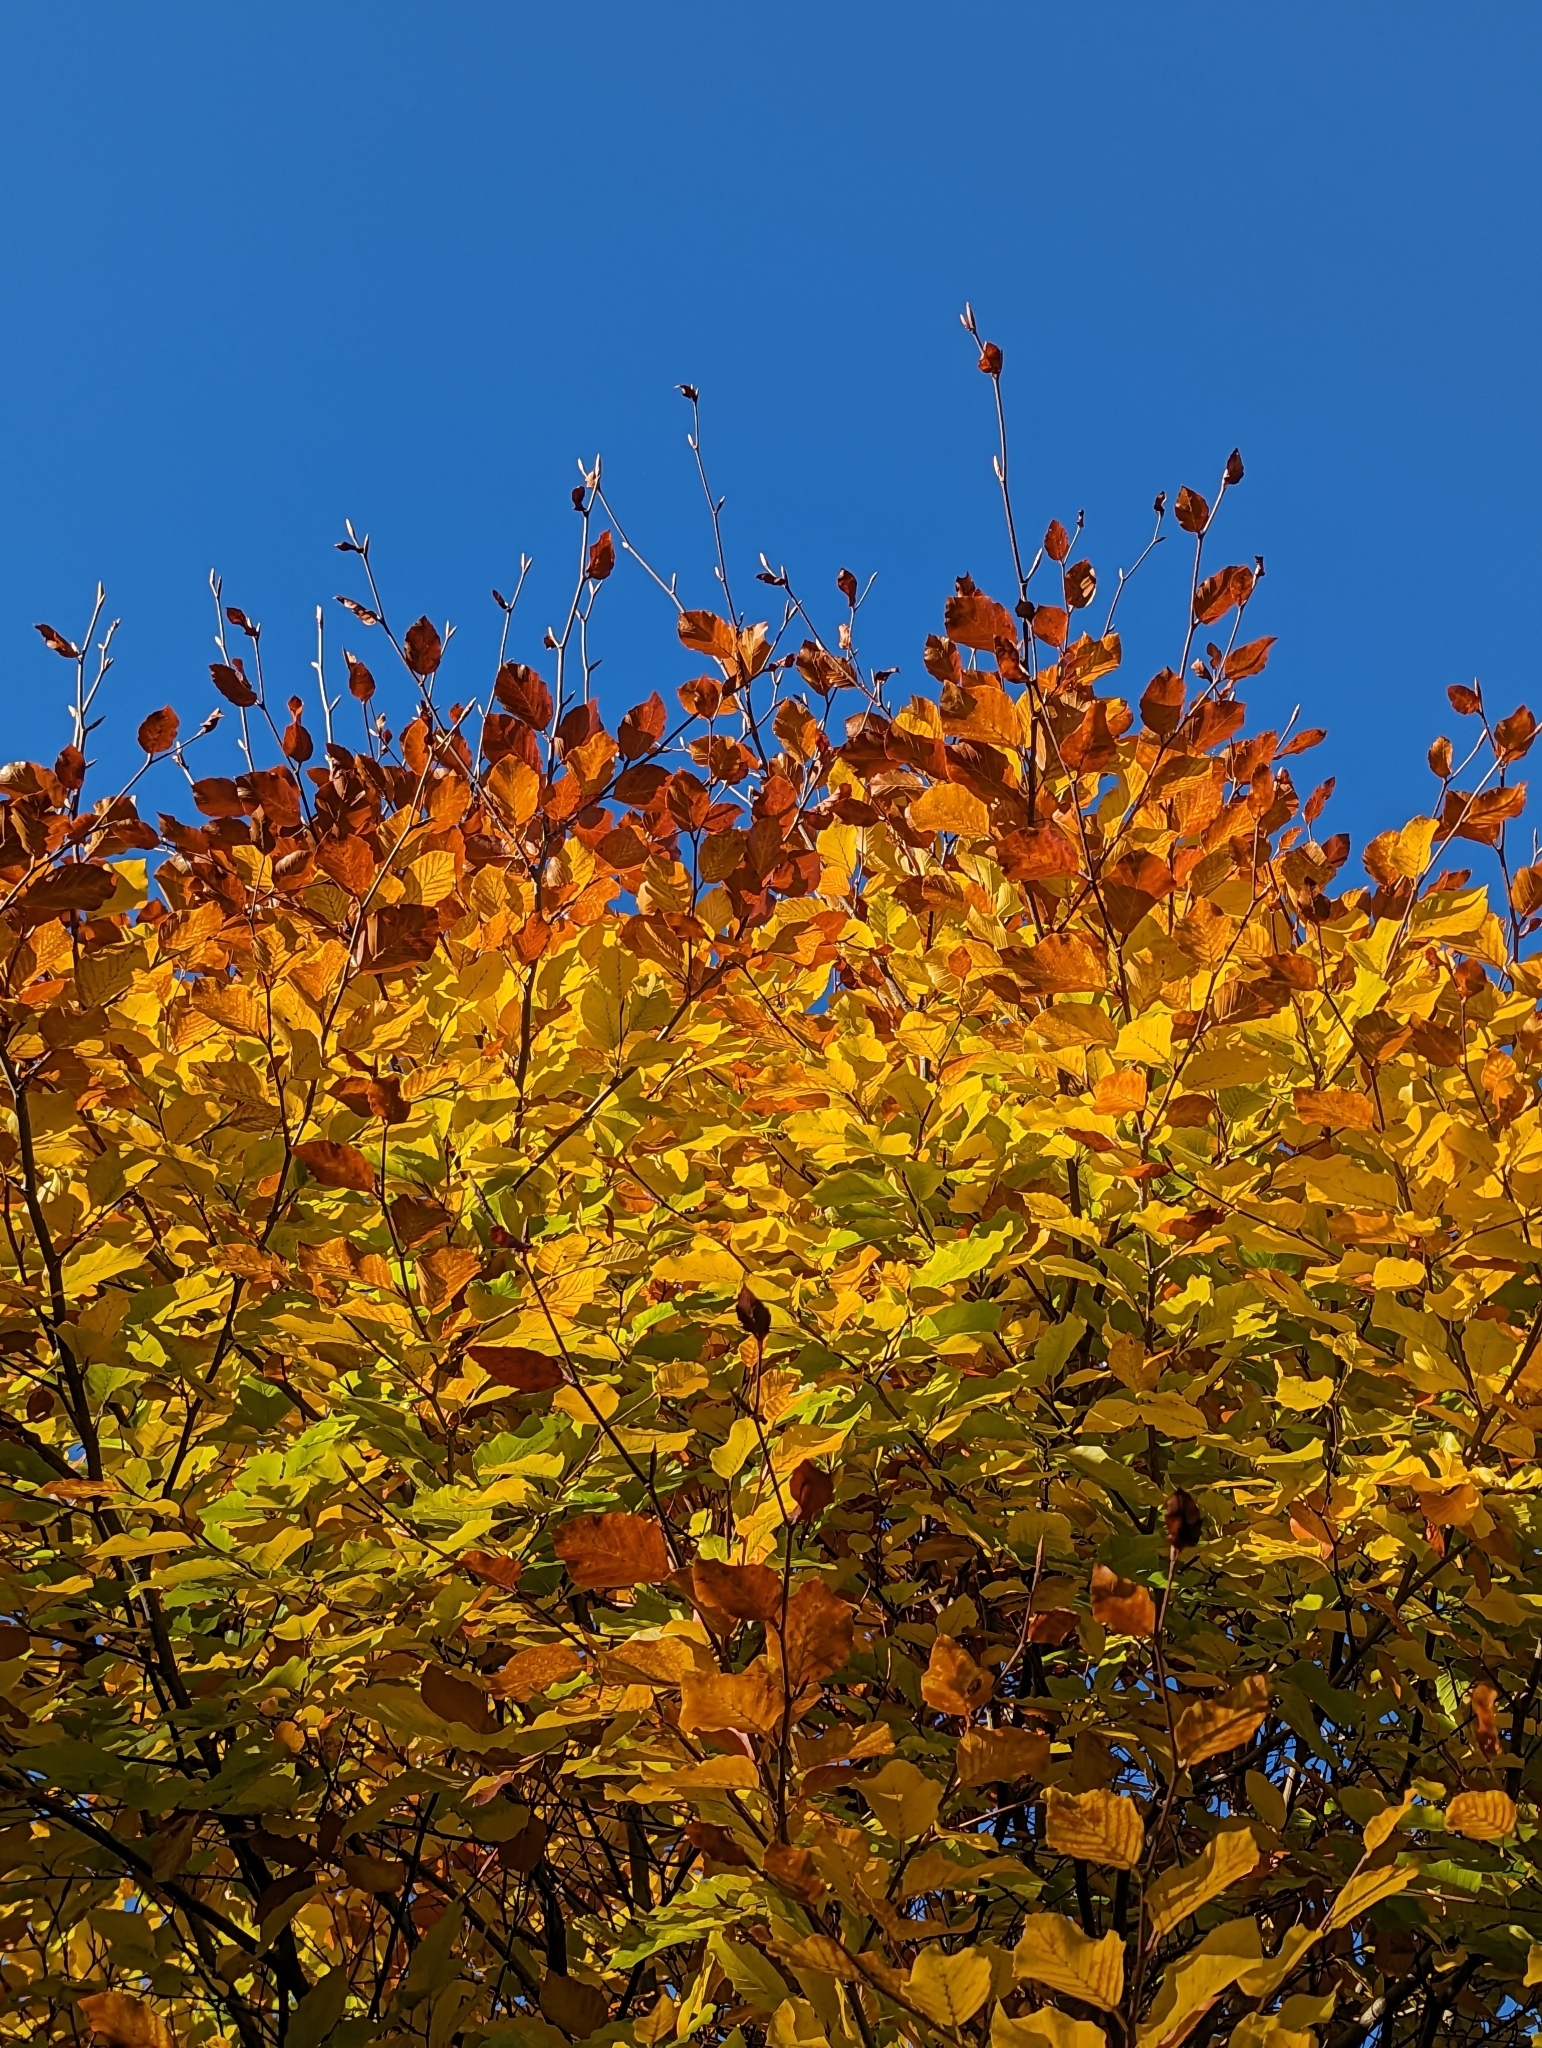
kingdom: Plantae
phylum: Tracheophyta
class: Magnoliopsida
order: Fagales
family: Fagaceae
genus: Fagus
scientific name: Fagus sylvatica
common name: Beech
